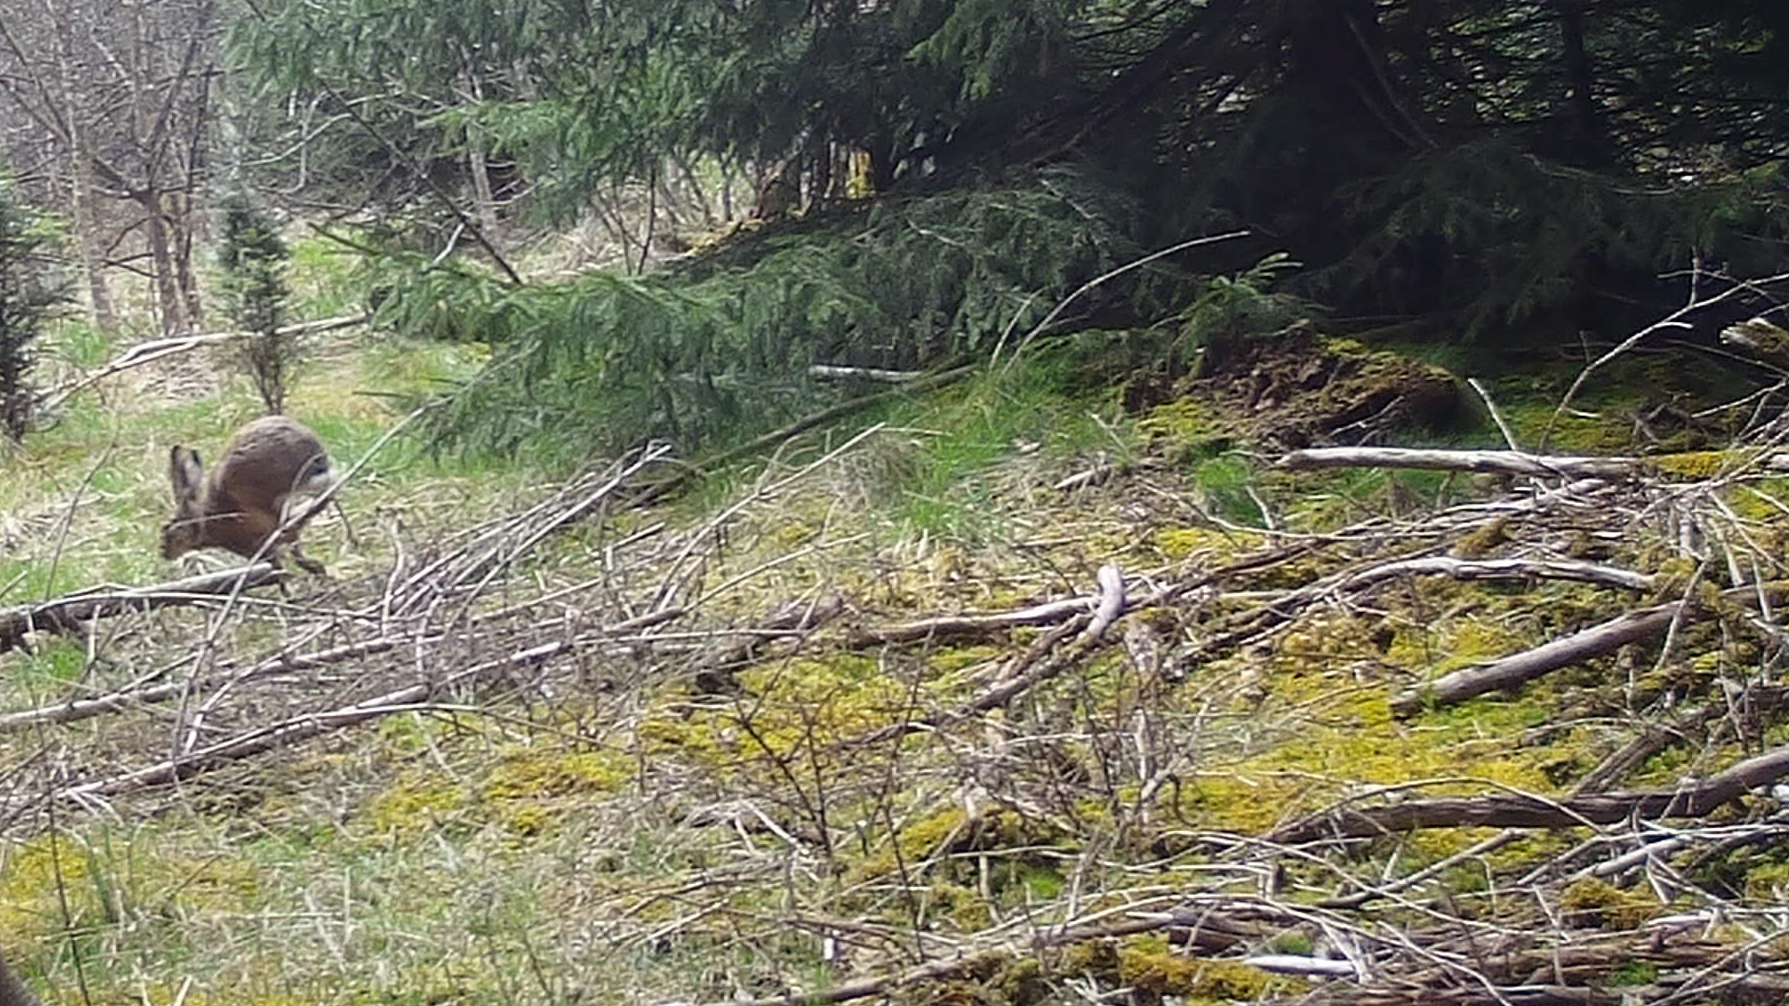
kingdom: Animalia
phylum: Chordata
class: Mammalia
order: Lagomorpha
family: Leporidae
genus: Lepus
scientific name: Lepus europaeus
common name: European hare
